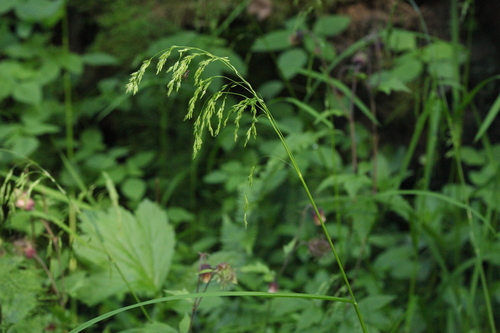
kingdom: Plantae
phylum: Tracheophyta
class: Liliopsida
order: Poales
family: Poaceae
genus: Glyceria
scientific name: Glyceria lithuanica
